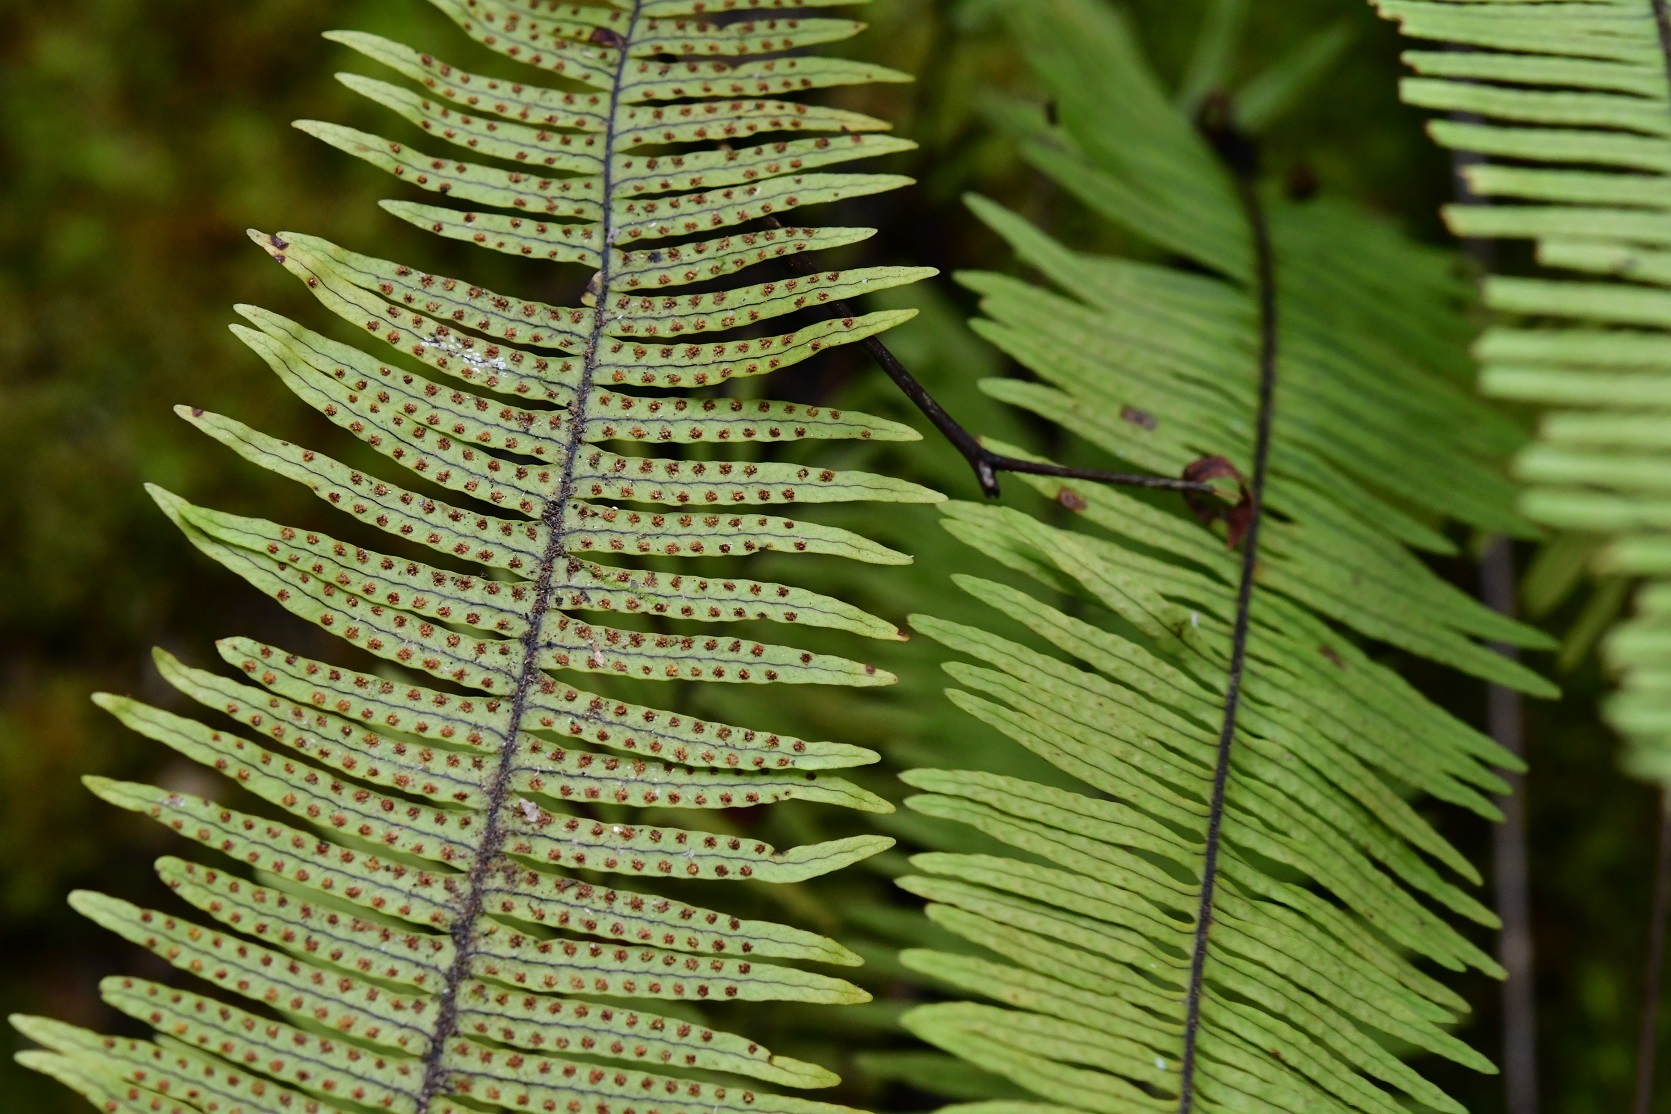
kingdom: Plantae
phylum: Tracheophyta
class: Polypodiopsida
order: Polypodiales
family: Polypodiaceae
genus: Pecluma
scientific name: Pecluma plumula
